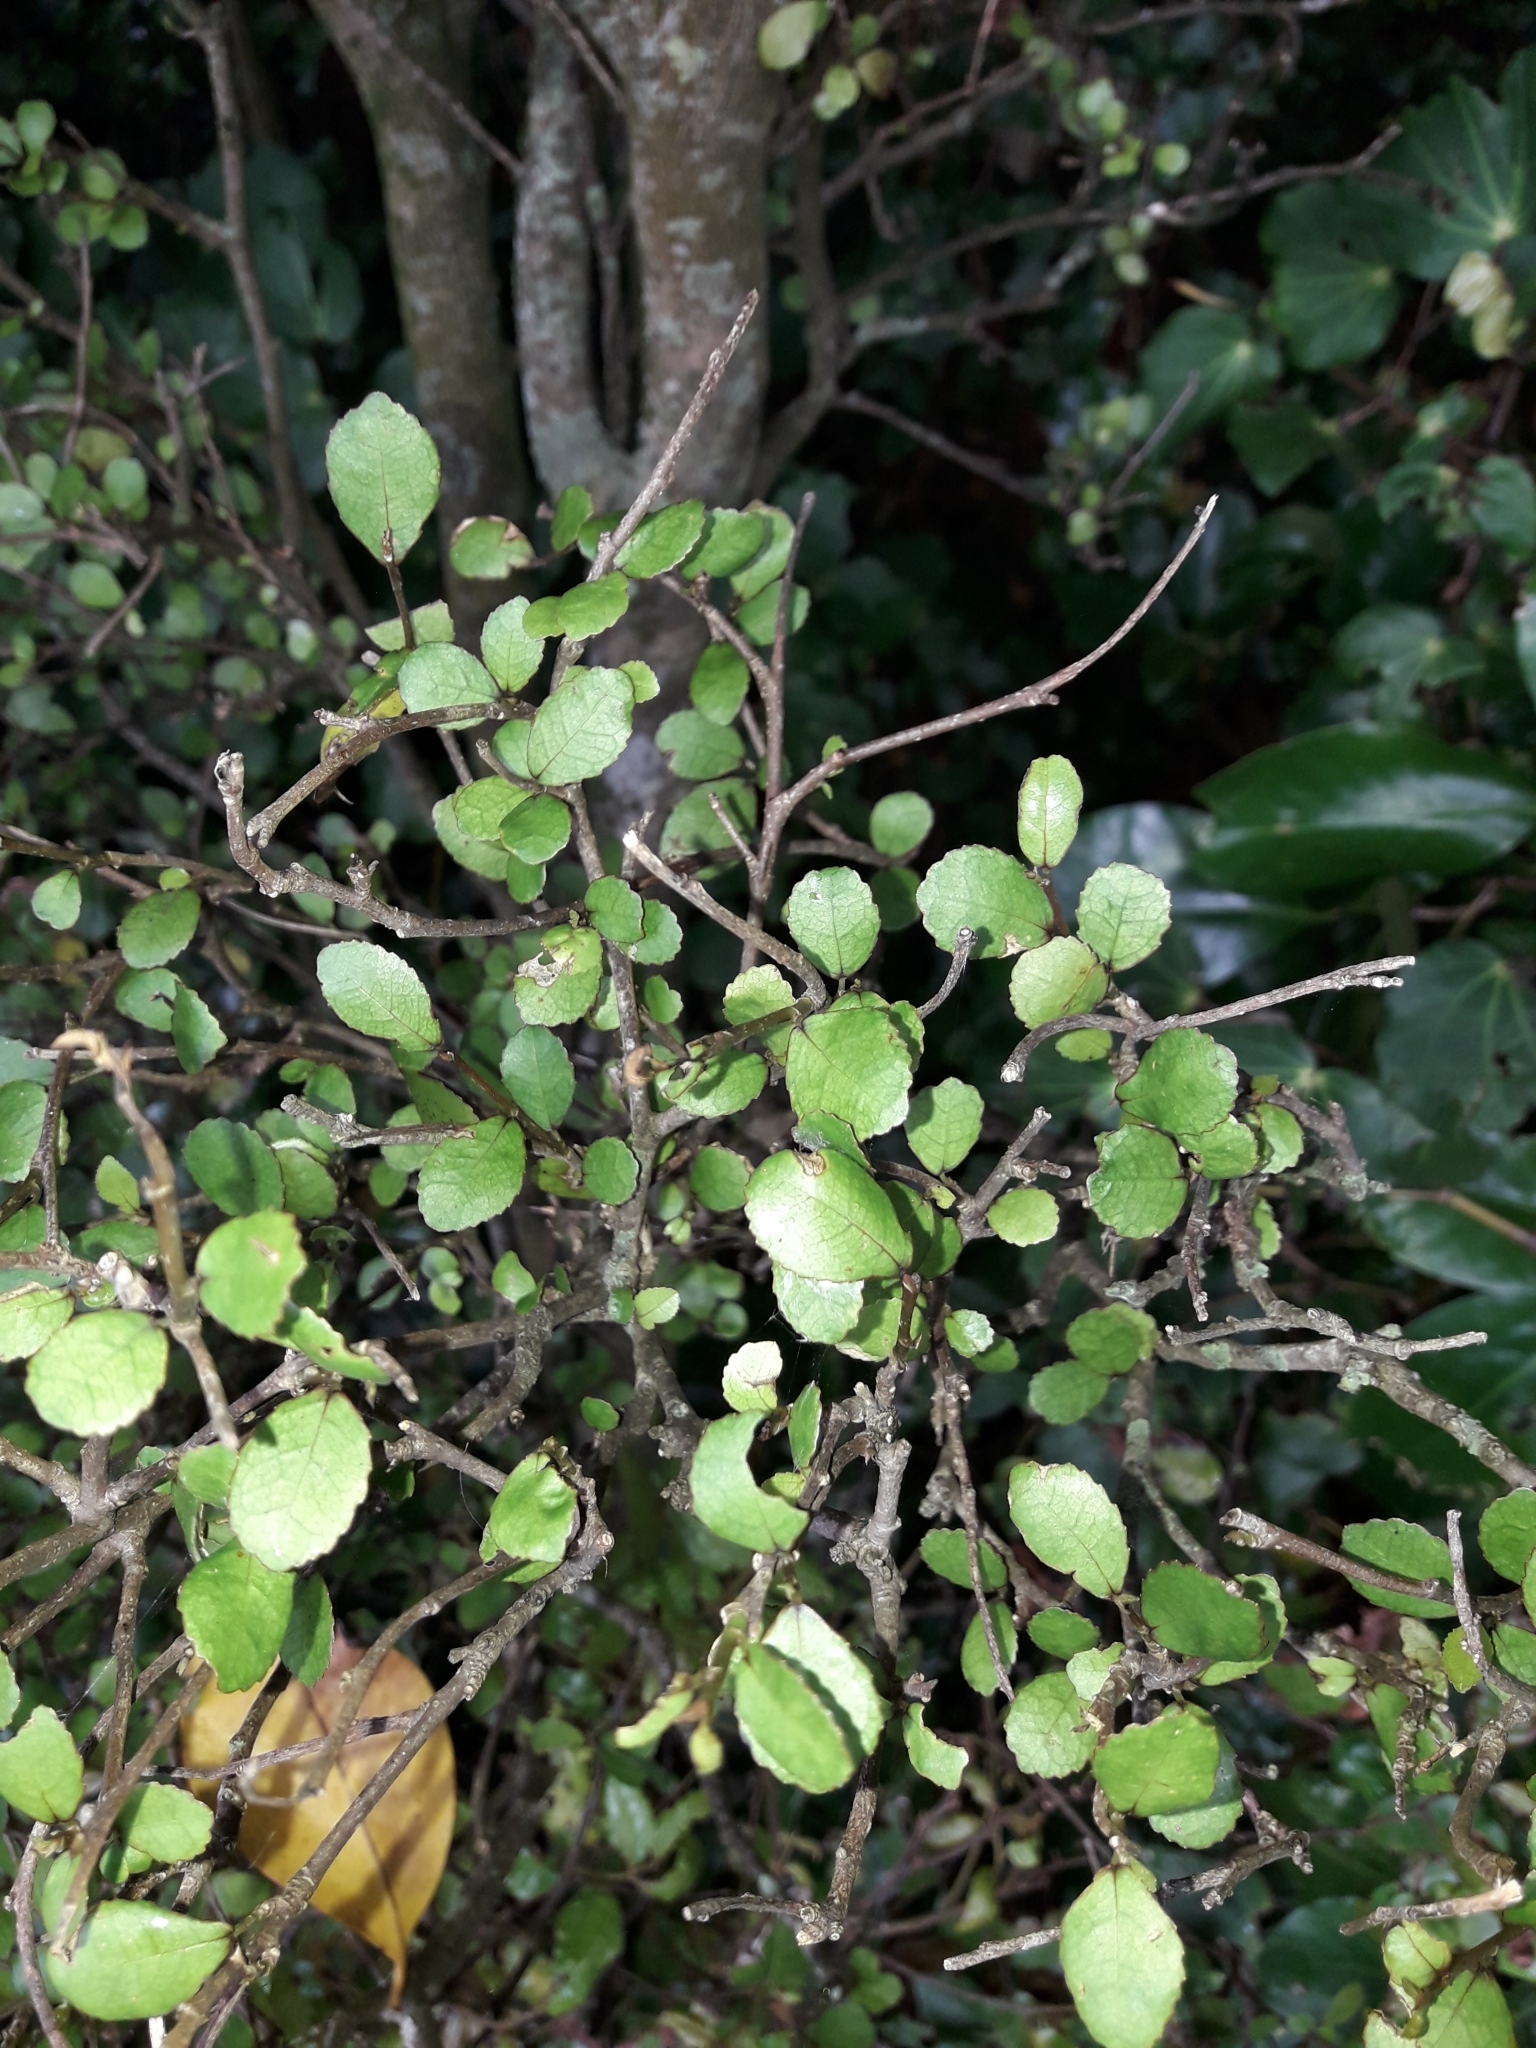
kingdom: Plantae
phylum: Tracheophyta
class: Magnoliopsida
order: Rosales
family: Moraceae
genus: Paratrophis
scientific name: Paratrophis microphylla
